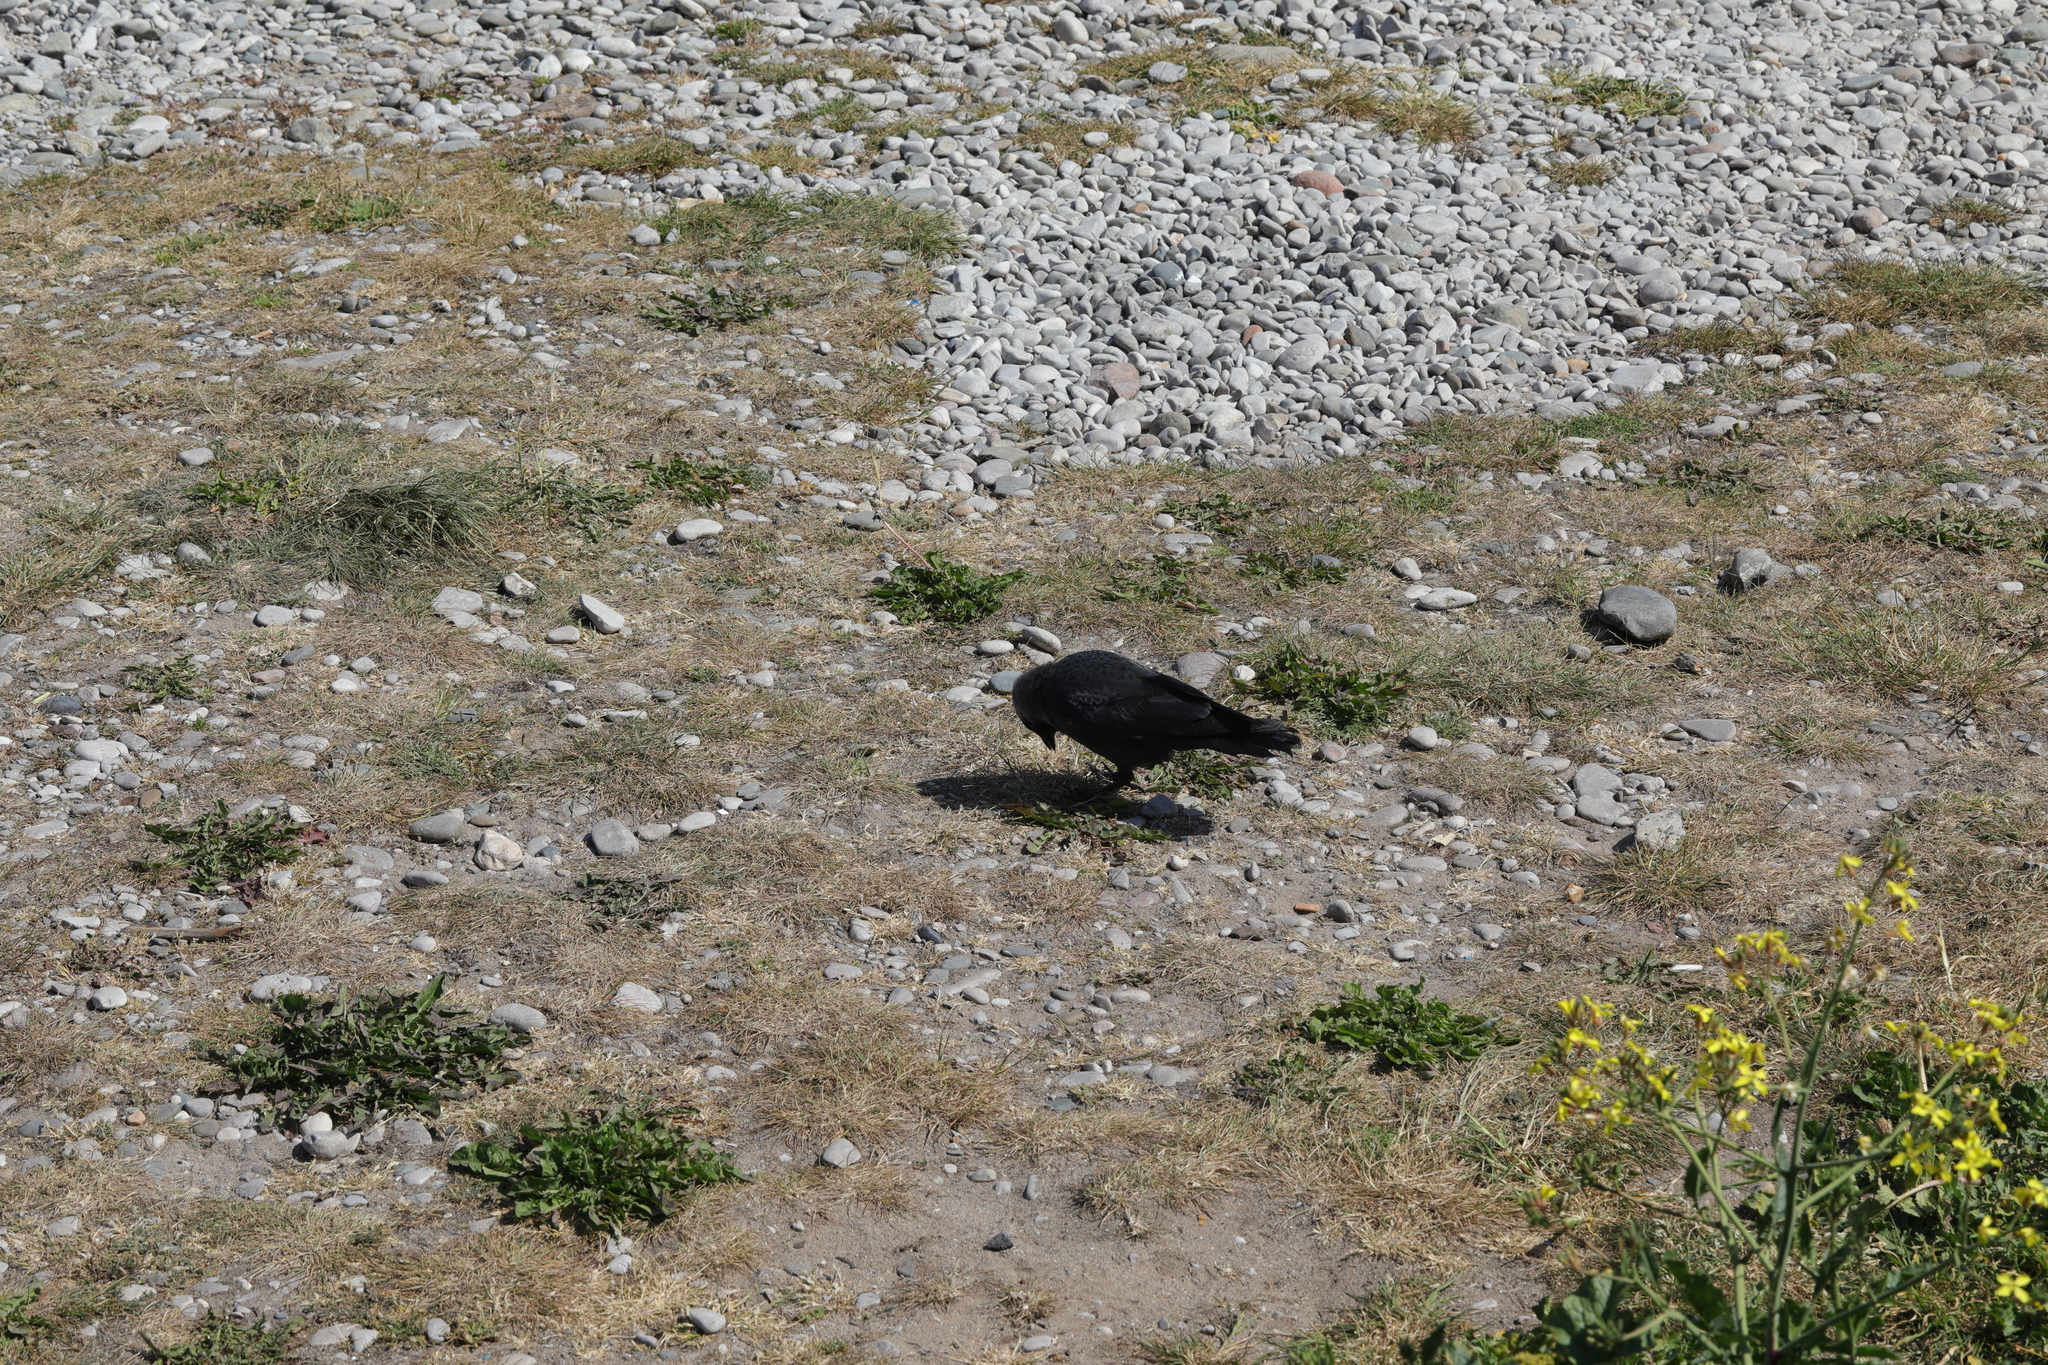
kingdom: Animalia
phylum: Chordata
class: Aves
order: Passeriformes
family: Corvidae
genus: Coloeus
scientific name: Coloeus monedula
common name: Western jackdaw
